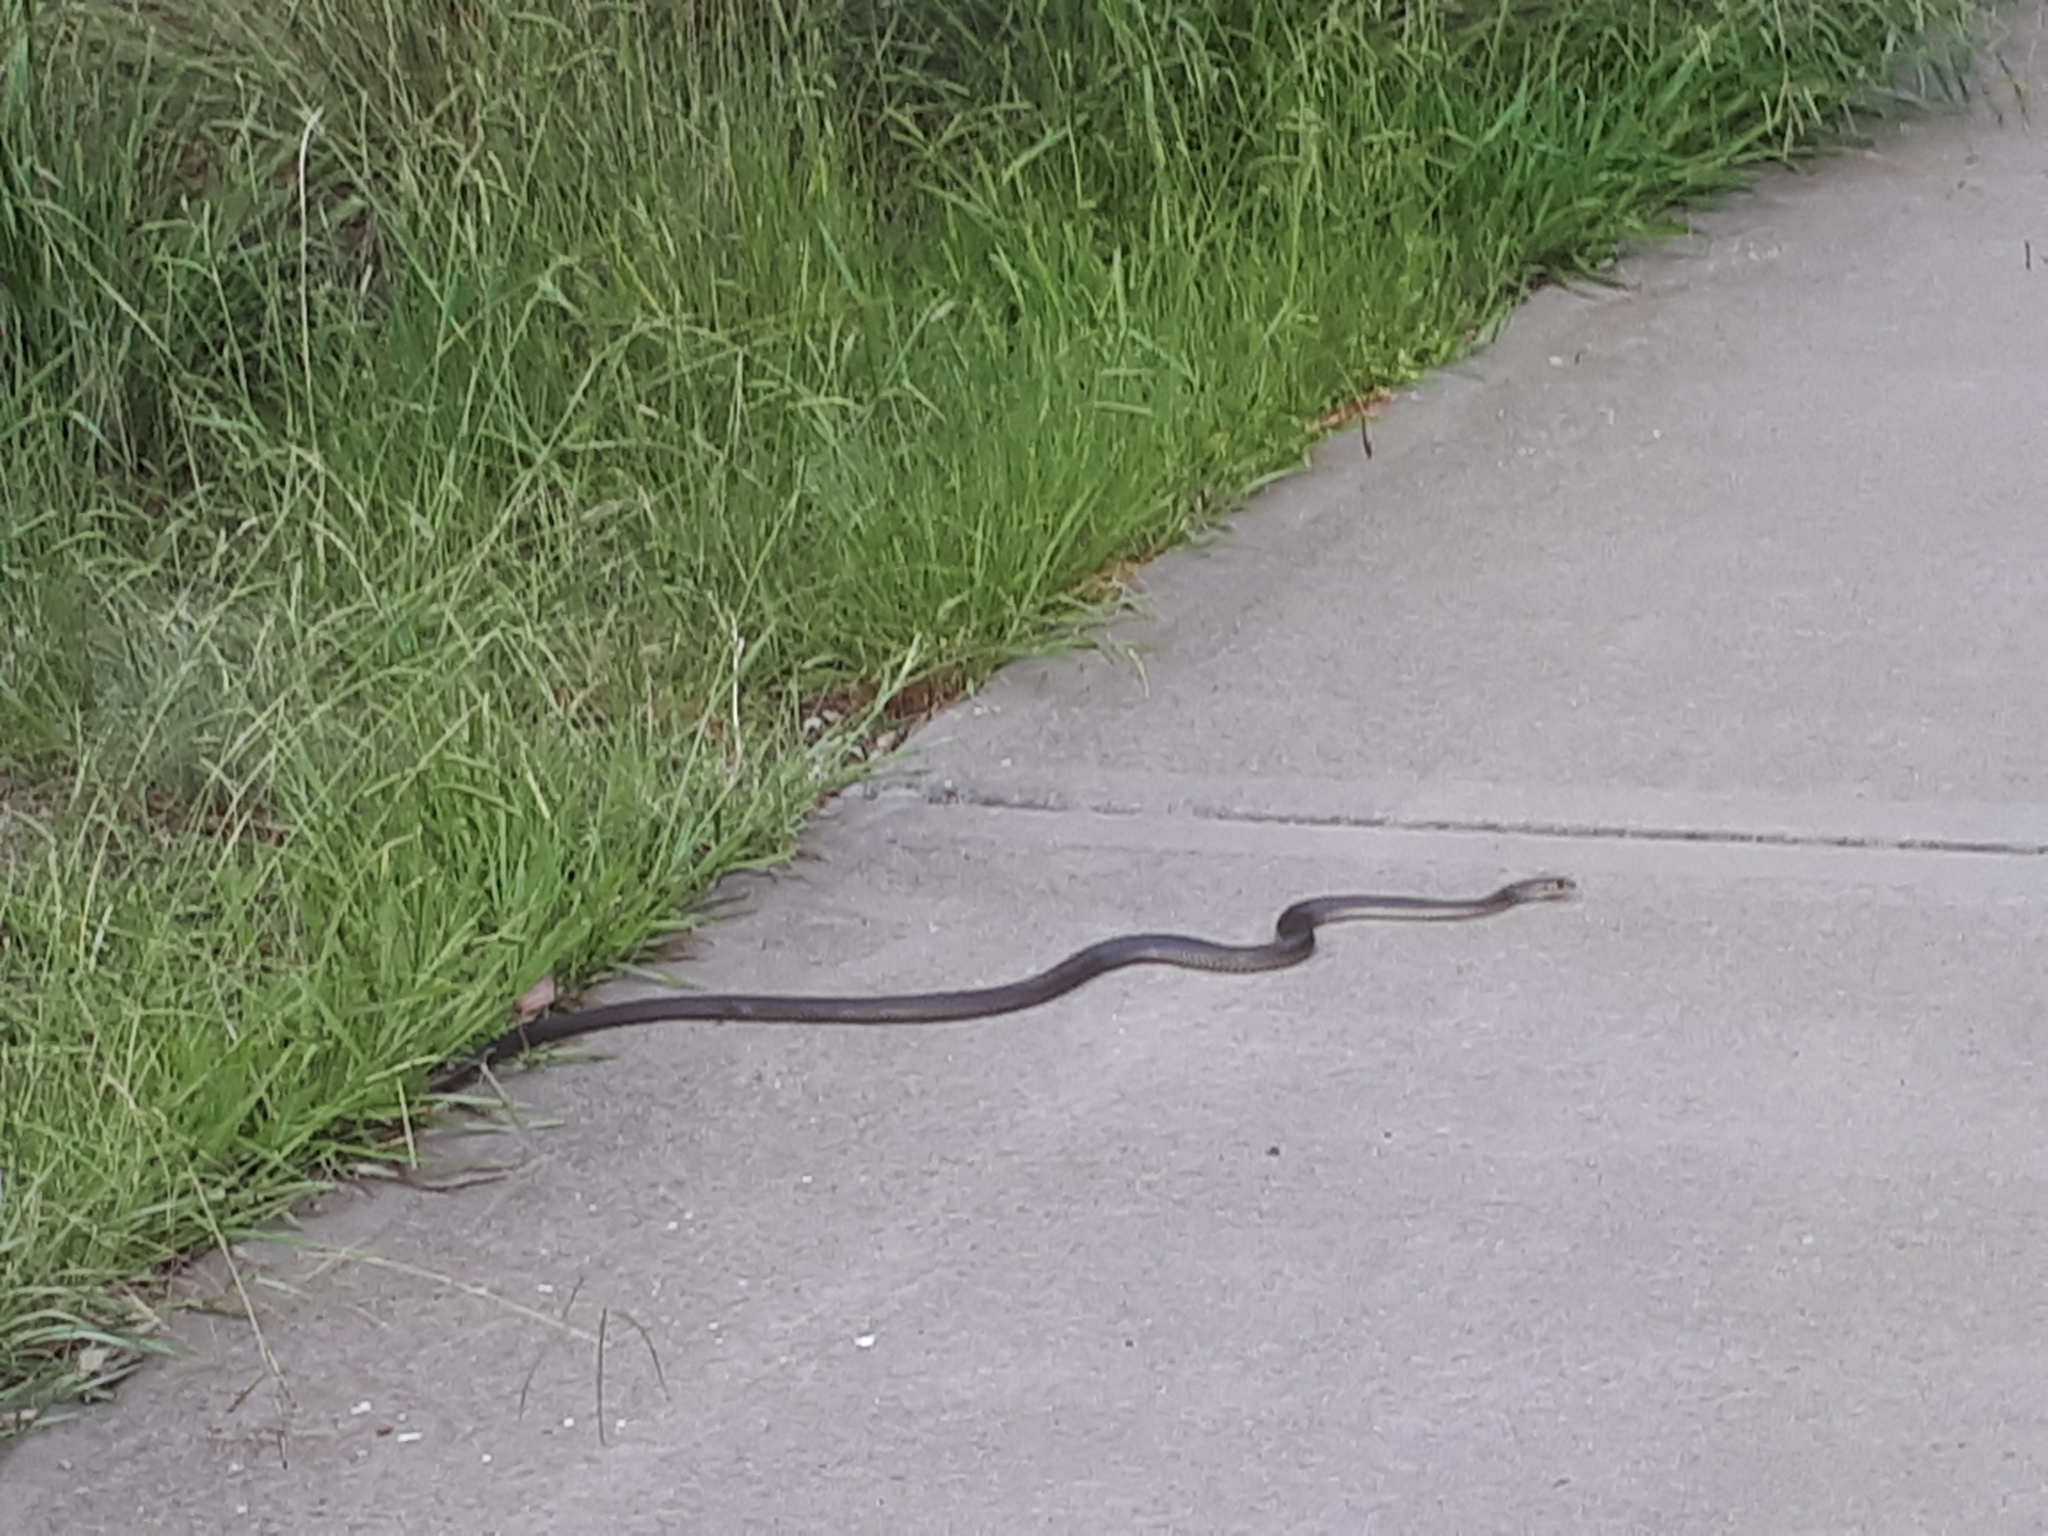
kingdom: Animalia
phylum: Chordata
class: Squamata
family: Elapidae
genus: Pseudonaja
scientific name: Pseudonaja textilis
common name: Eastern brown snake
